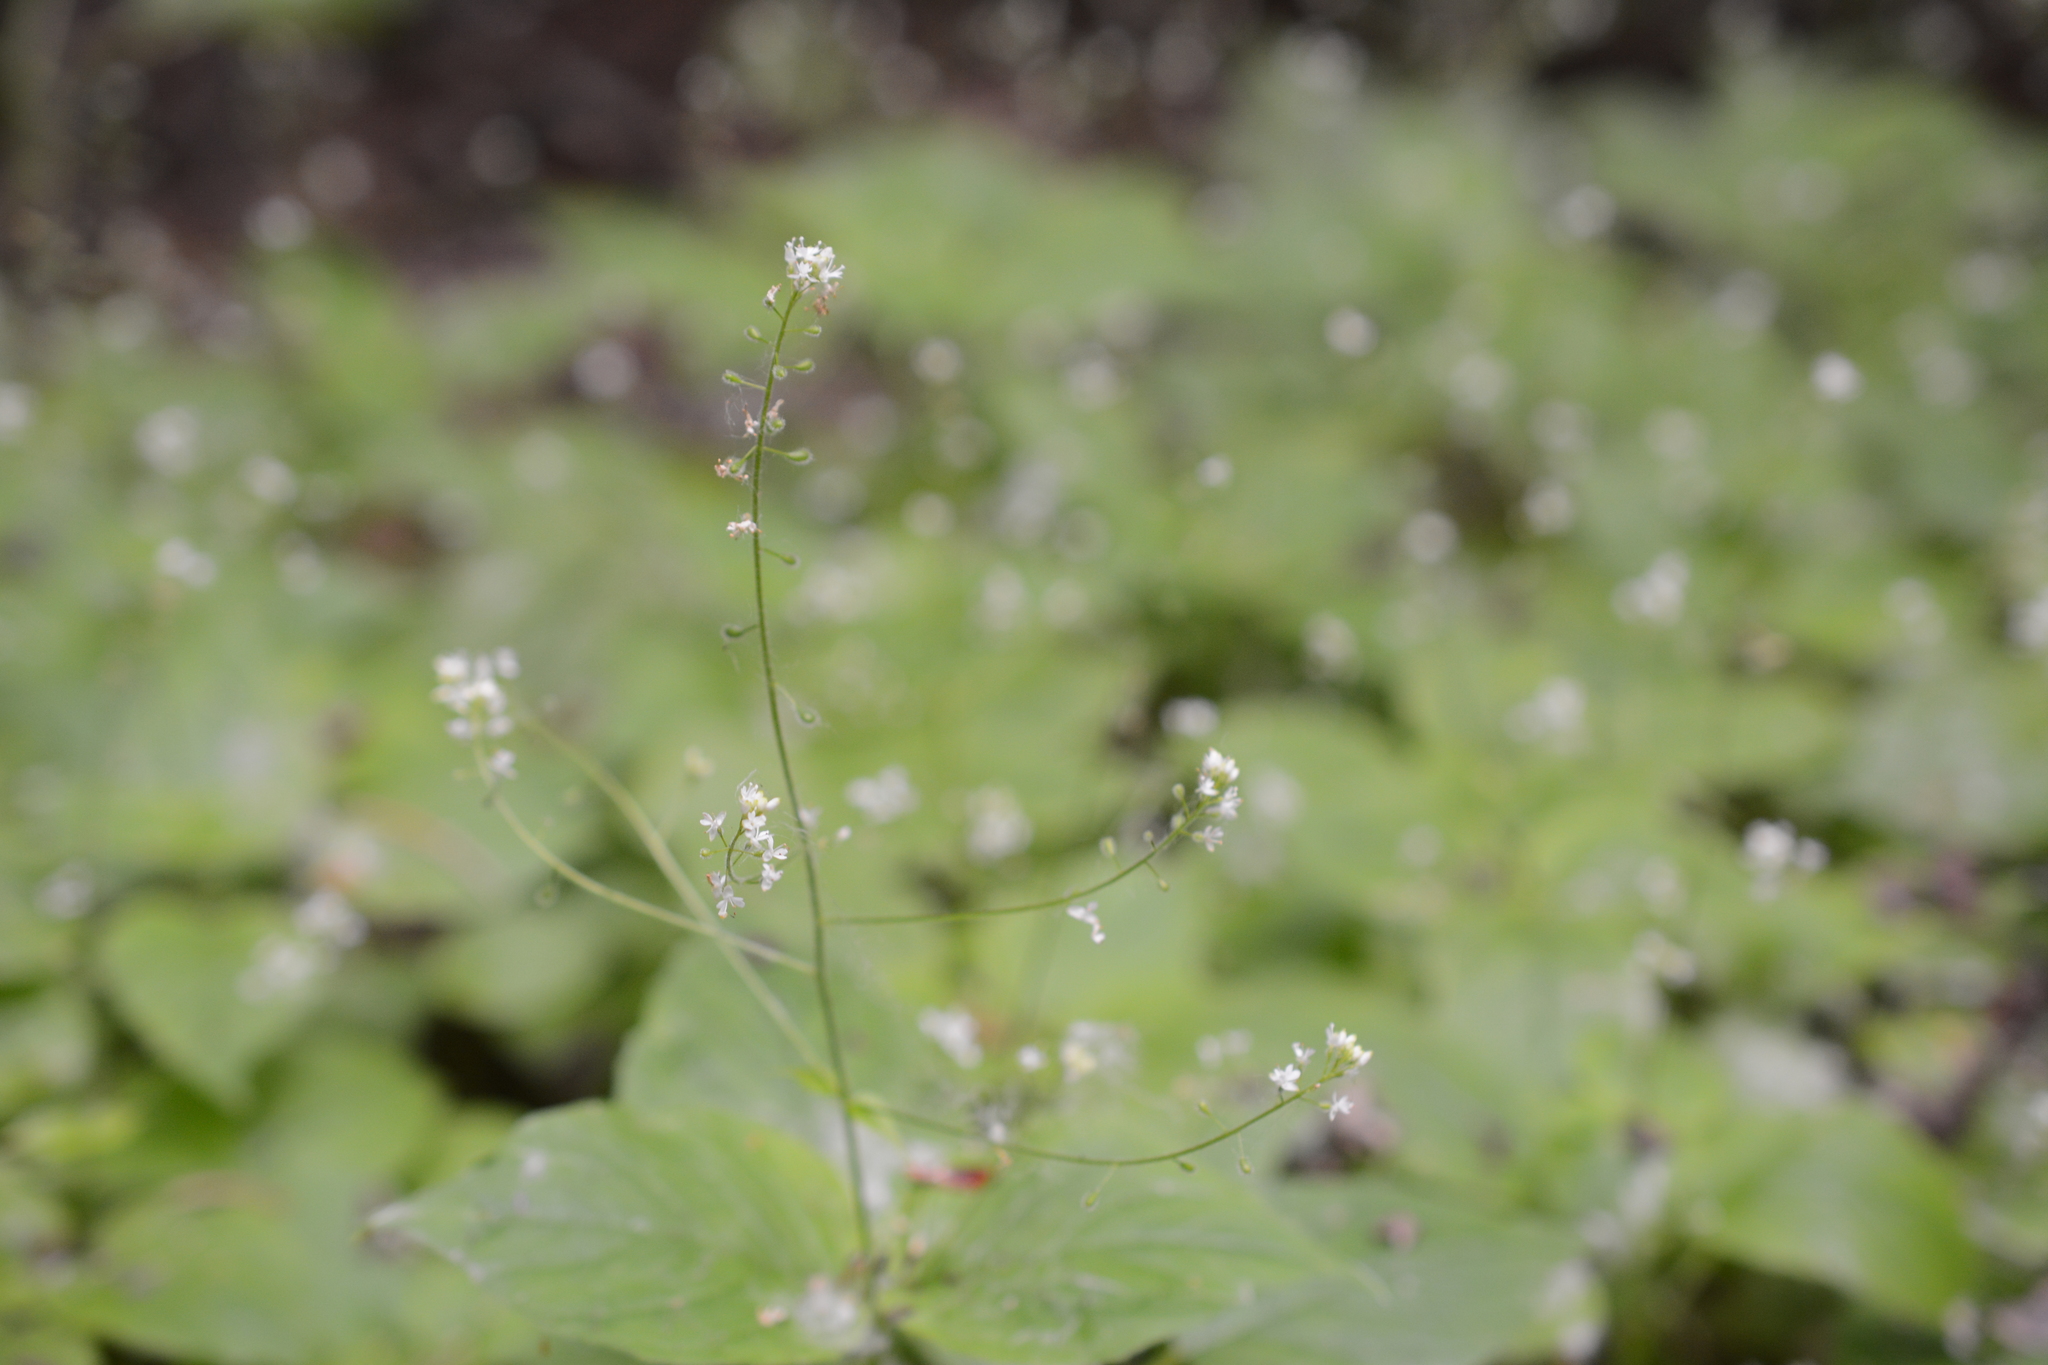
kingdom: Plantae
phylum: Tracheophyta
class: Magnoliopsida
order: Myrtales
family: Onagraceae
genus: Circaea
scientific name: Circaea alpina
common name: Alpine enchanter's-nightshade
